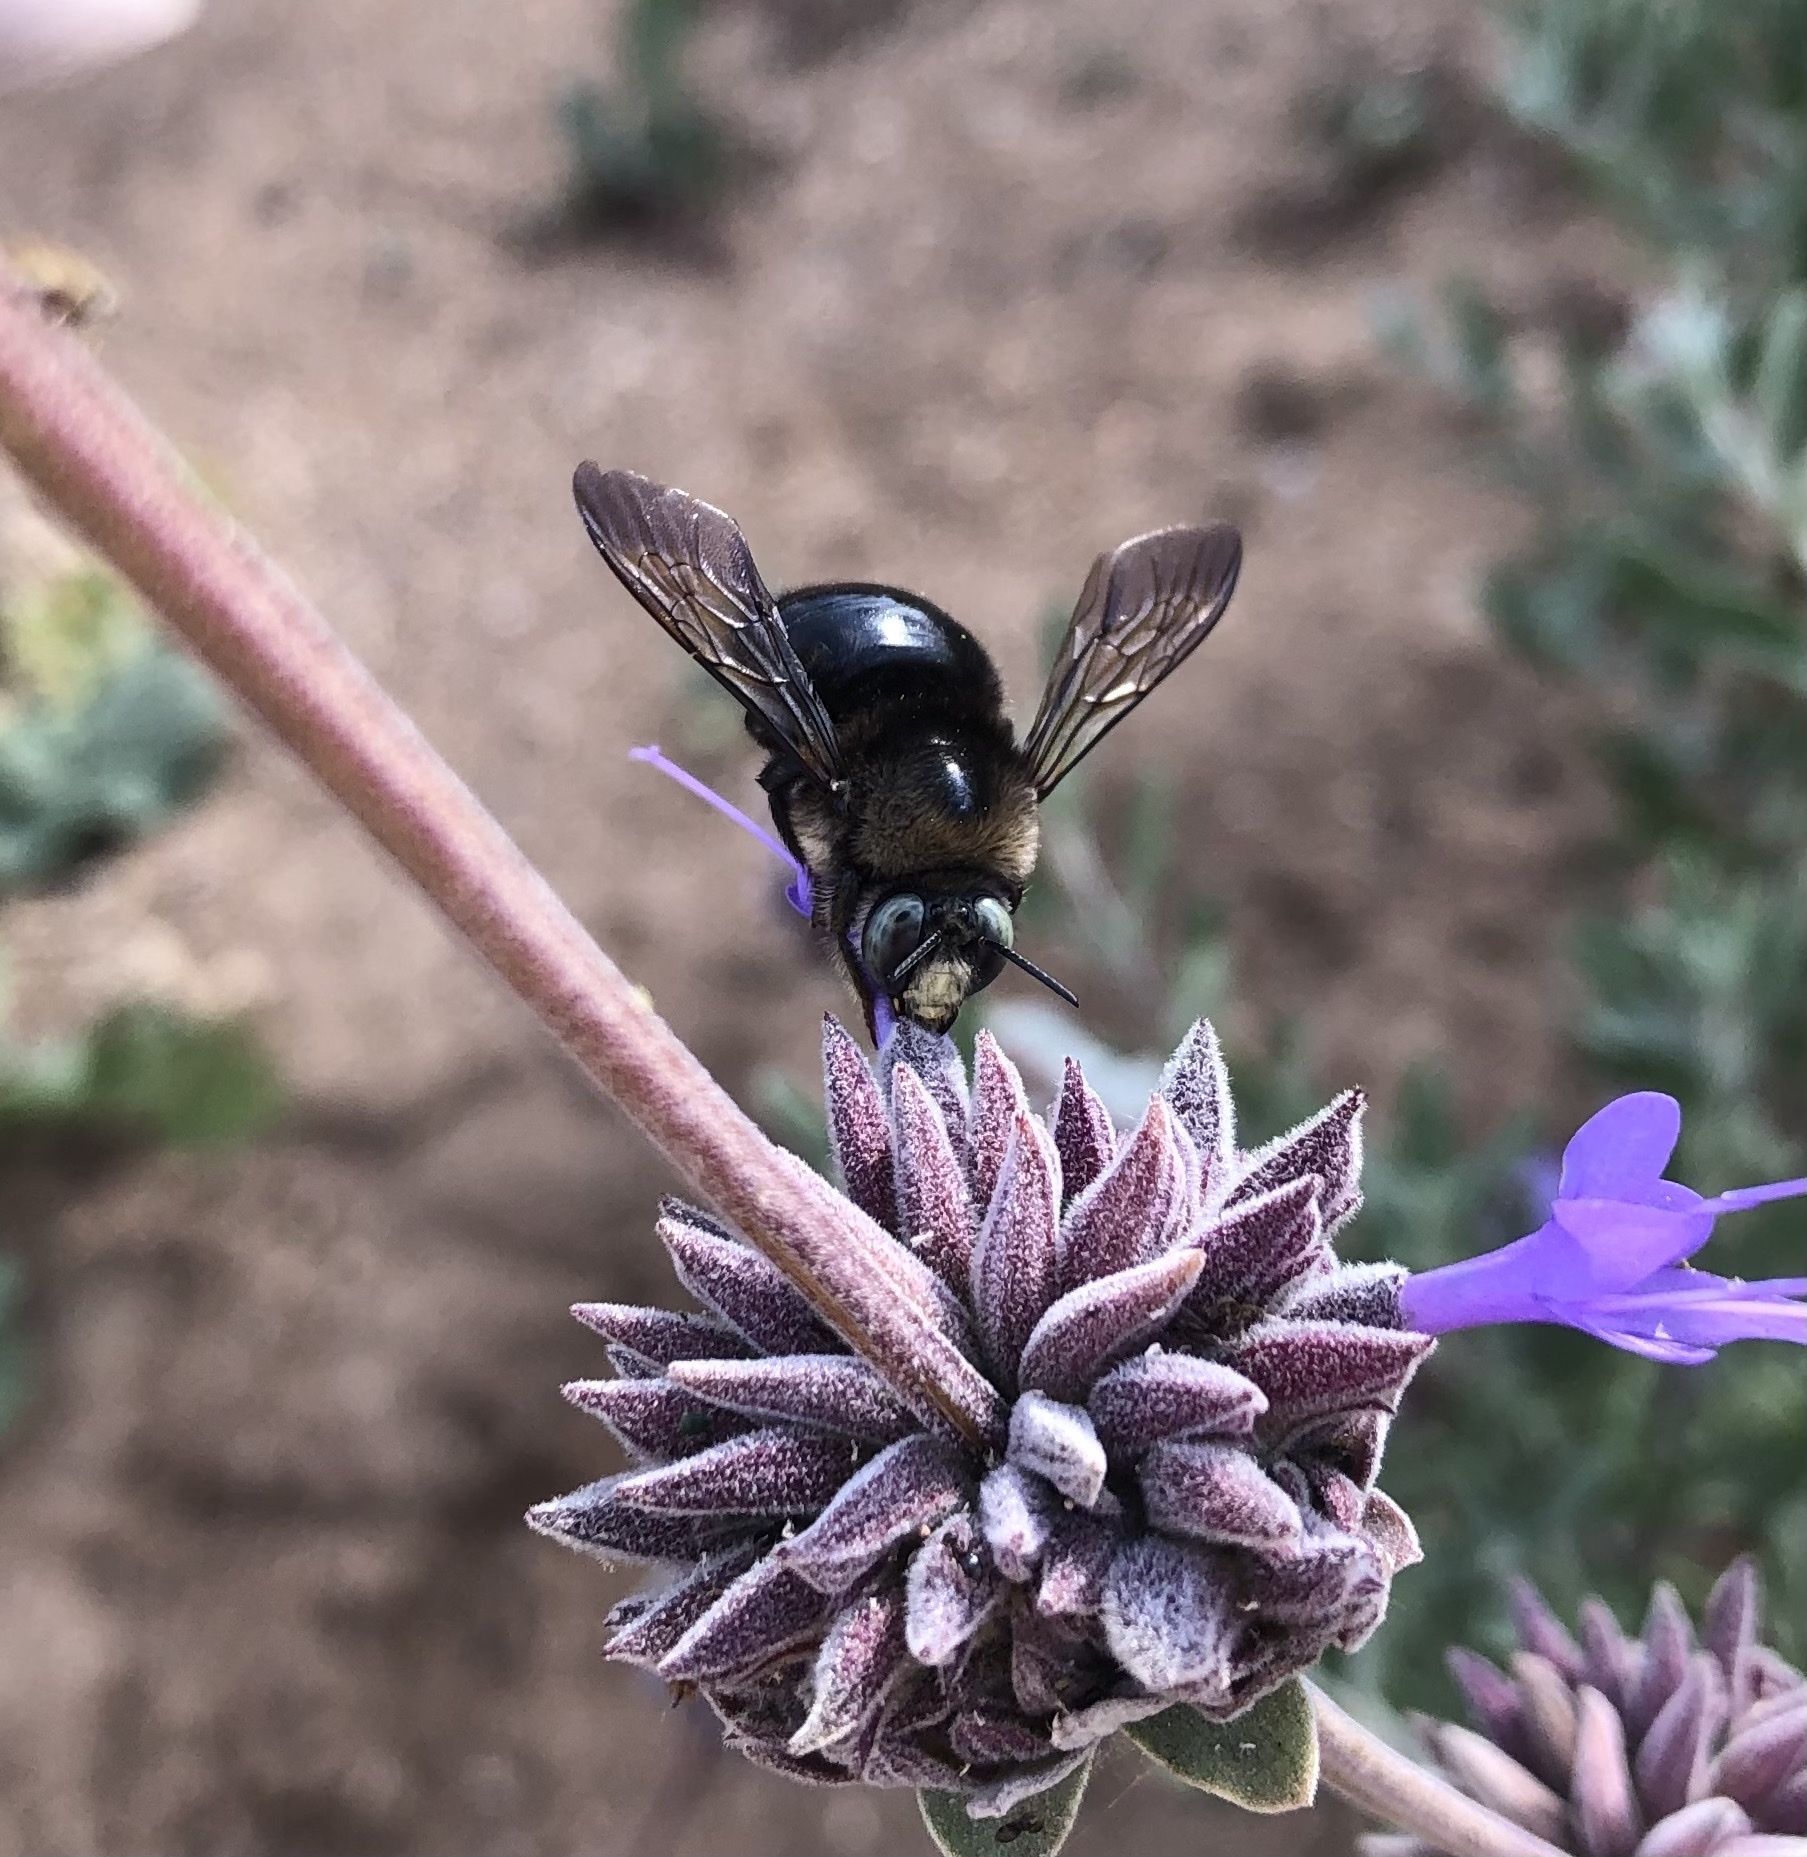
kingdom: Animalia
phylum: Arthropoda
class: Insecta
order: Hymenoptera
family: Apidae
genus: Xylocopa
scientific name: Xylocopa tabaniformis
